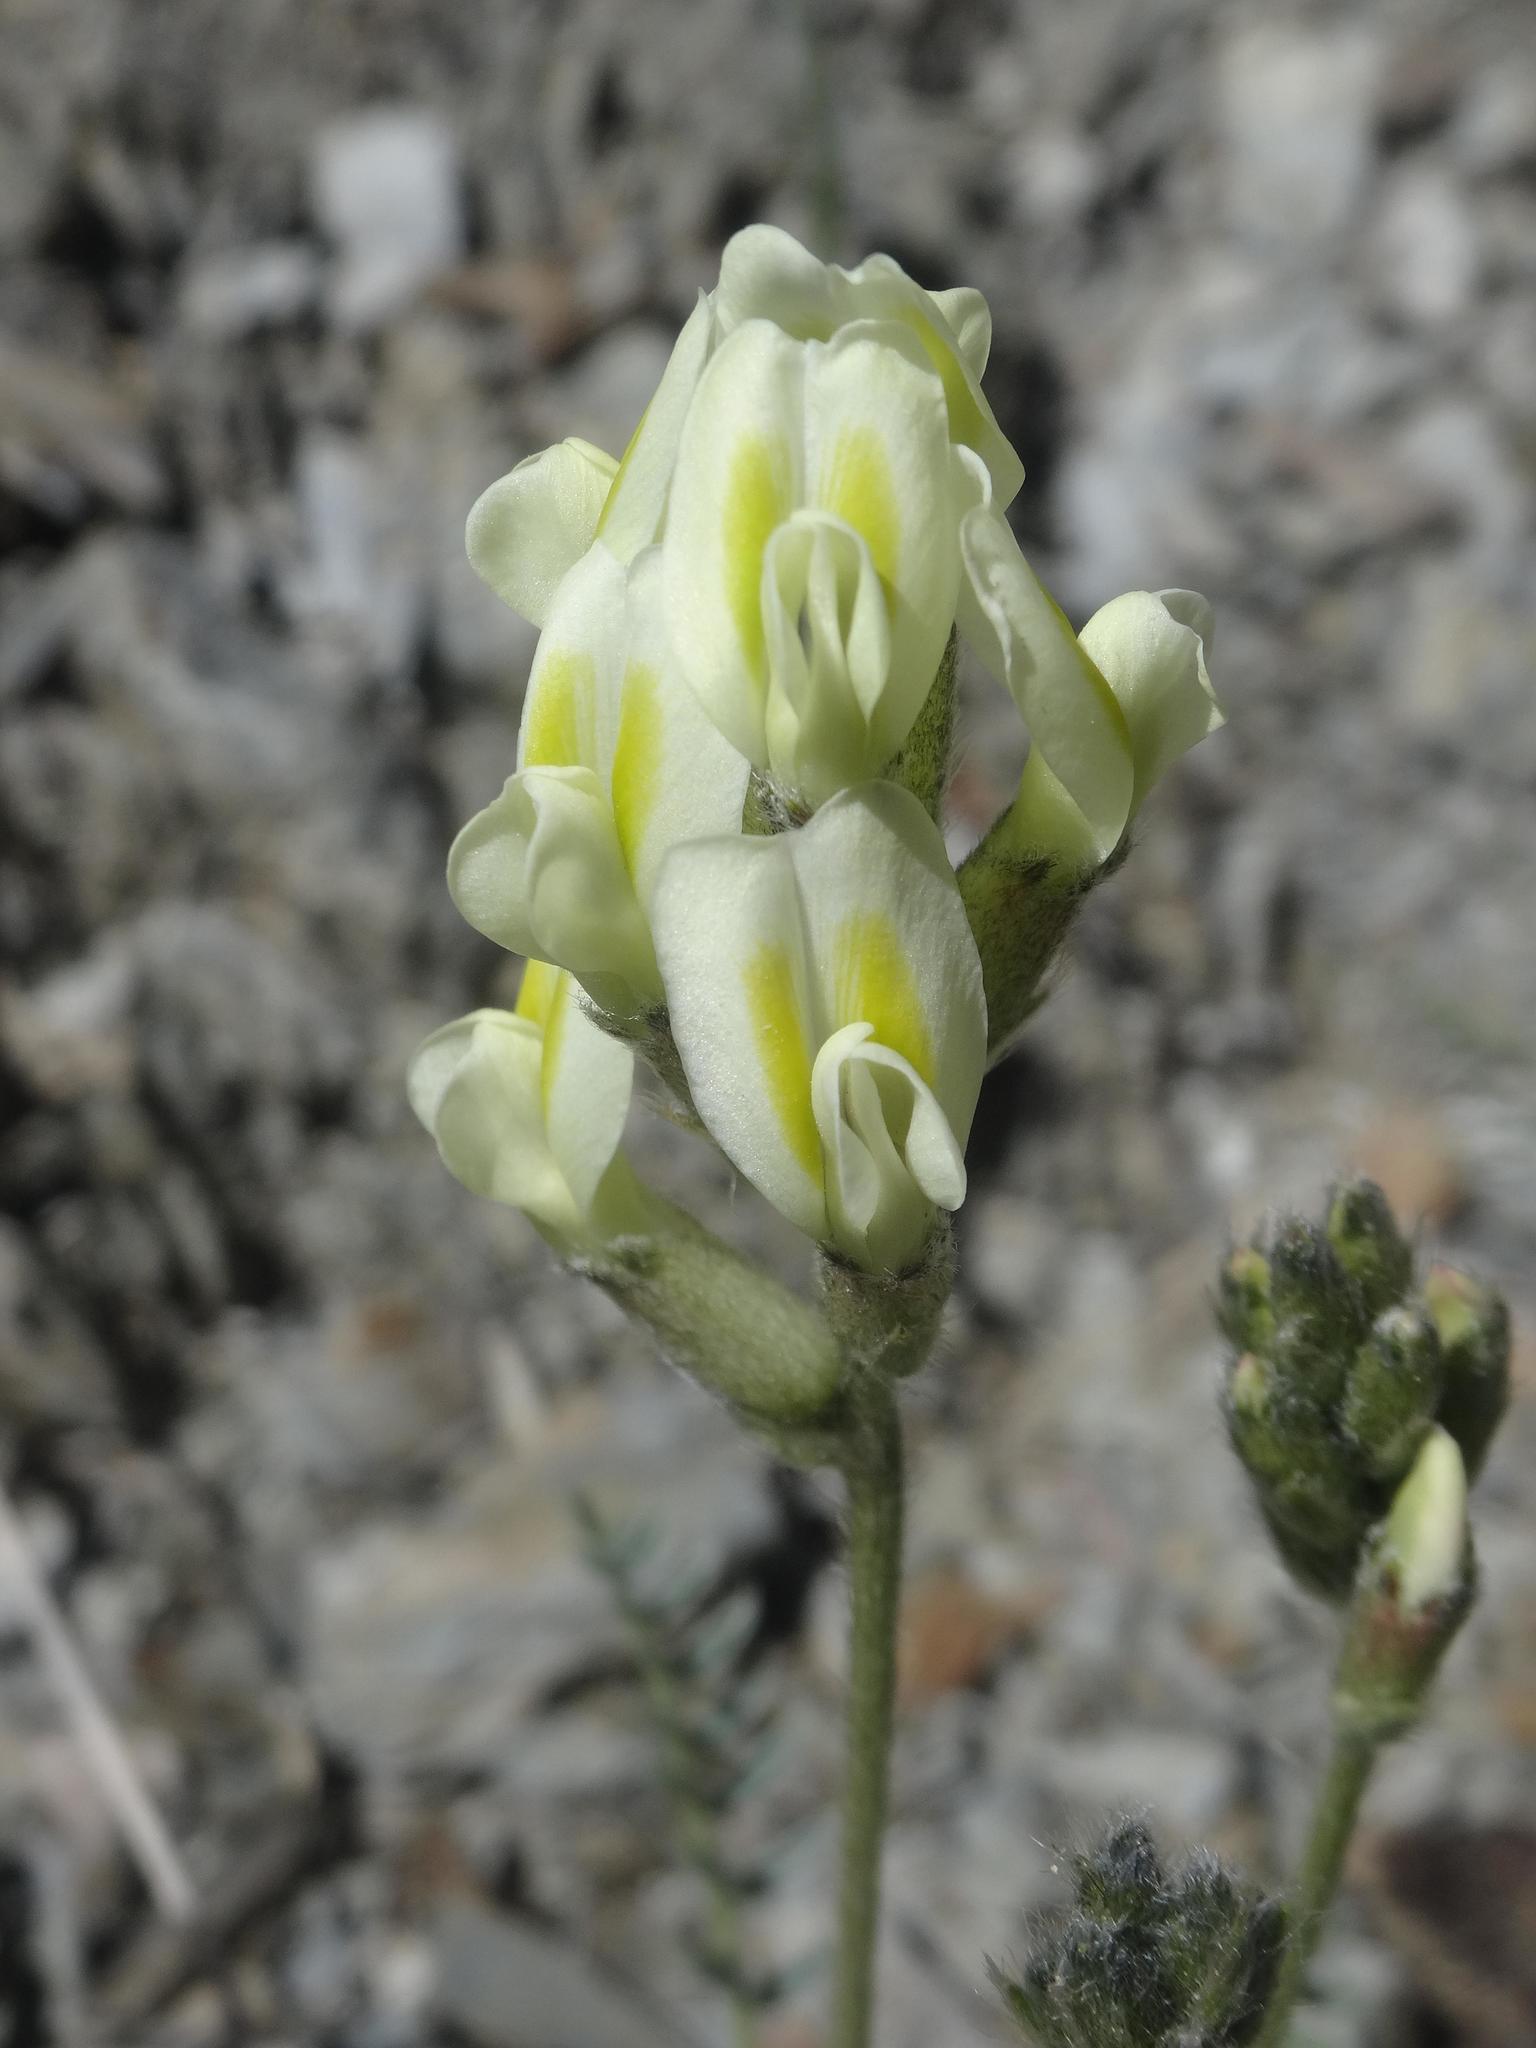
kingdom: Plantae
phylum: Tracheophyta
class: Magnoliopsida
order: Fabales
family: Fabaceae
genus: Oxytropis
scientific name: Oxytropis campestris
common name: Field locoweed
